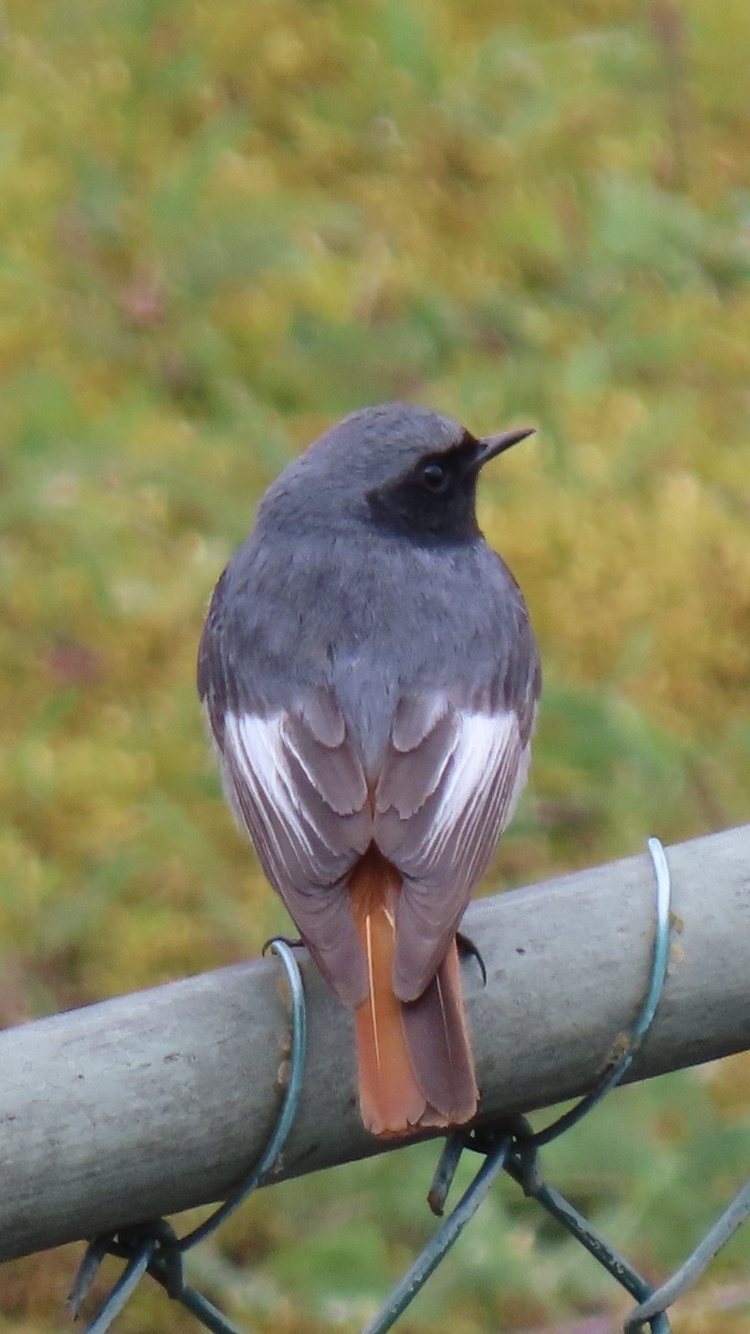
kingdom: Animalia
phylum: Chordata
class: Aves
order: Passeriformes
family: Muscicapidae
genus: Phoenicurus
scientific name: Phoenicurus ochruros
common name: Black redstart
